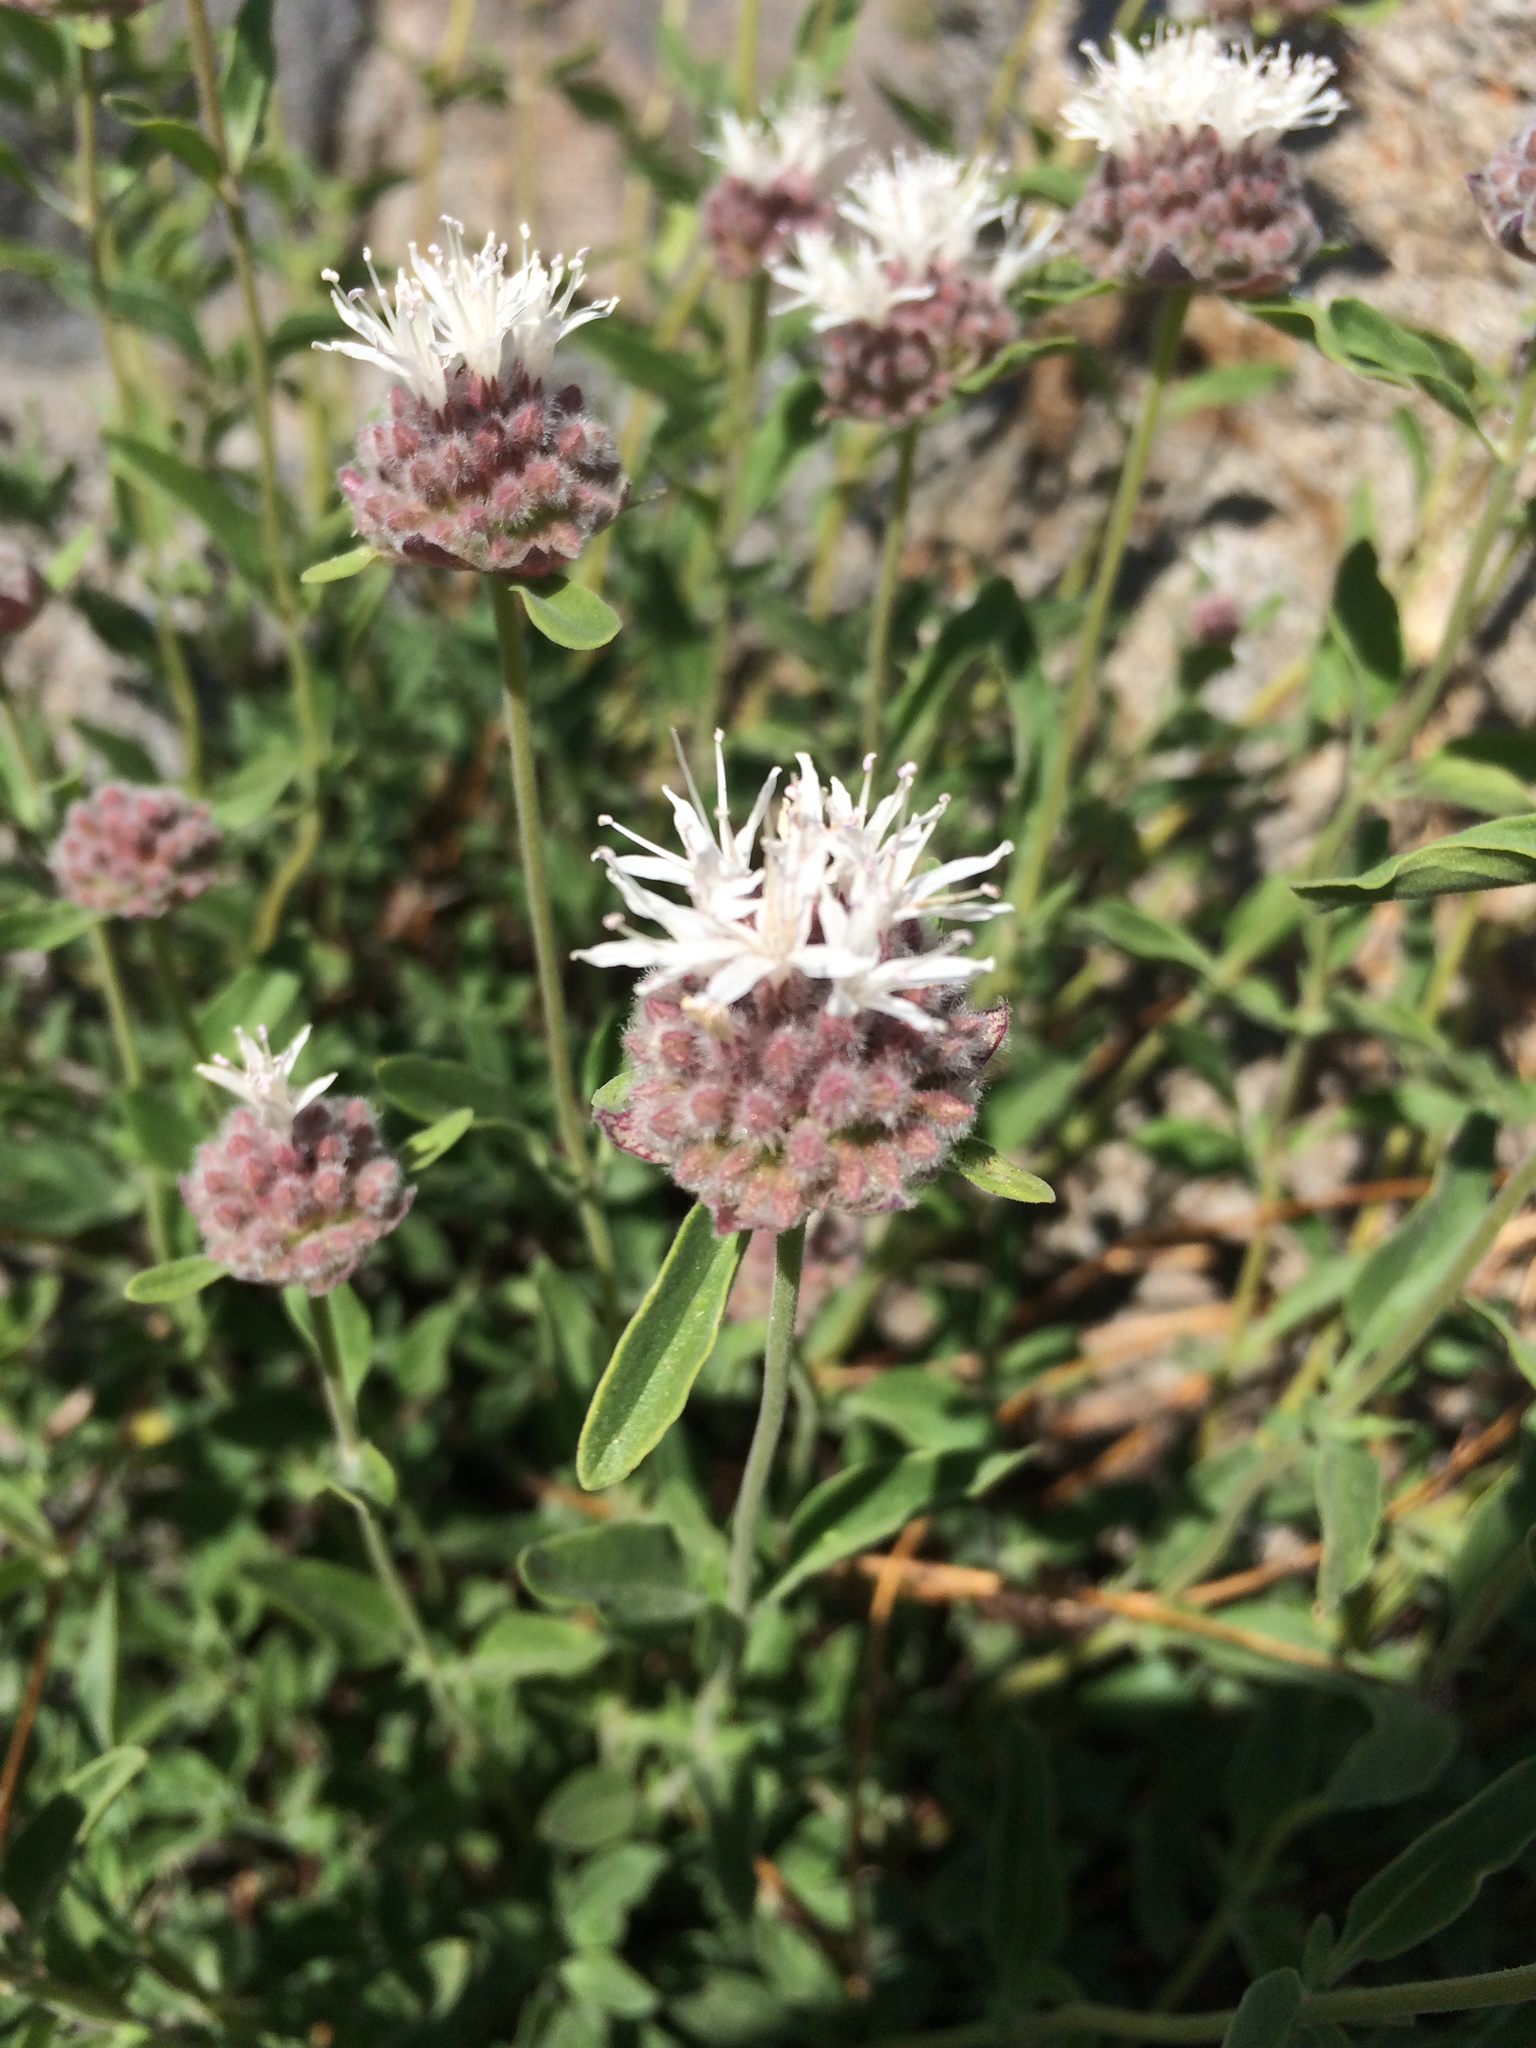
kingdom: Plantae
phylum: Tracheophyta
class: Magnoliopsida
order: Lamiales
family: Lamiaceae
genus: Monardella
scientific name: Monardella odoratissima
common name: Pacific monardella
